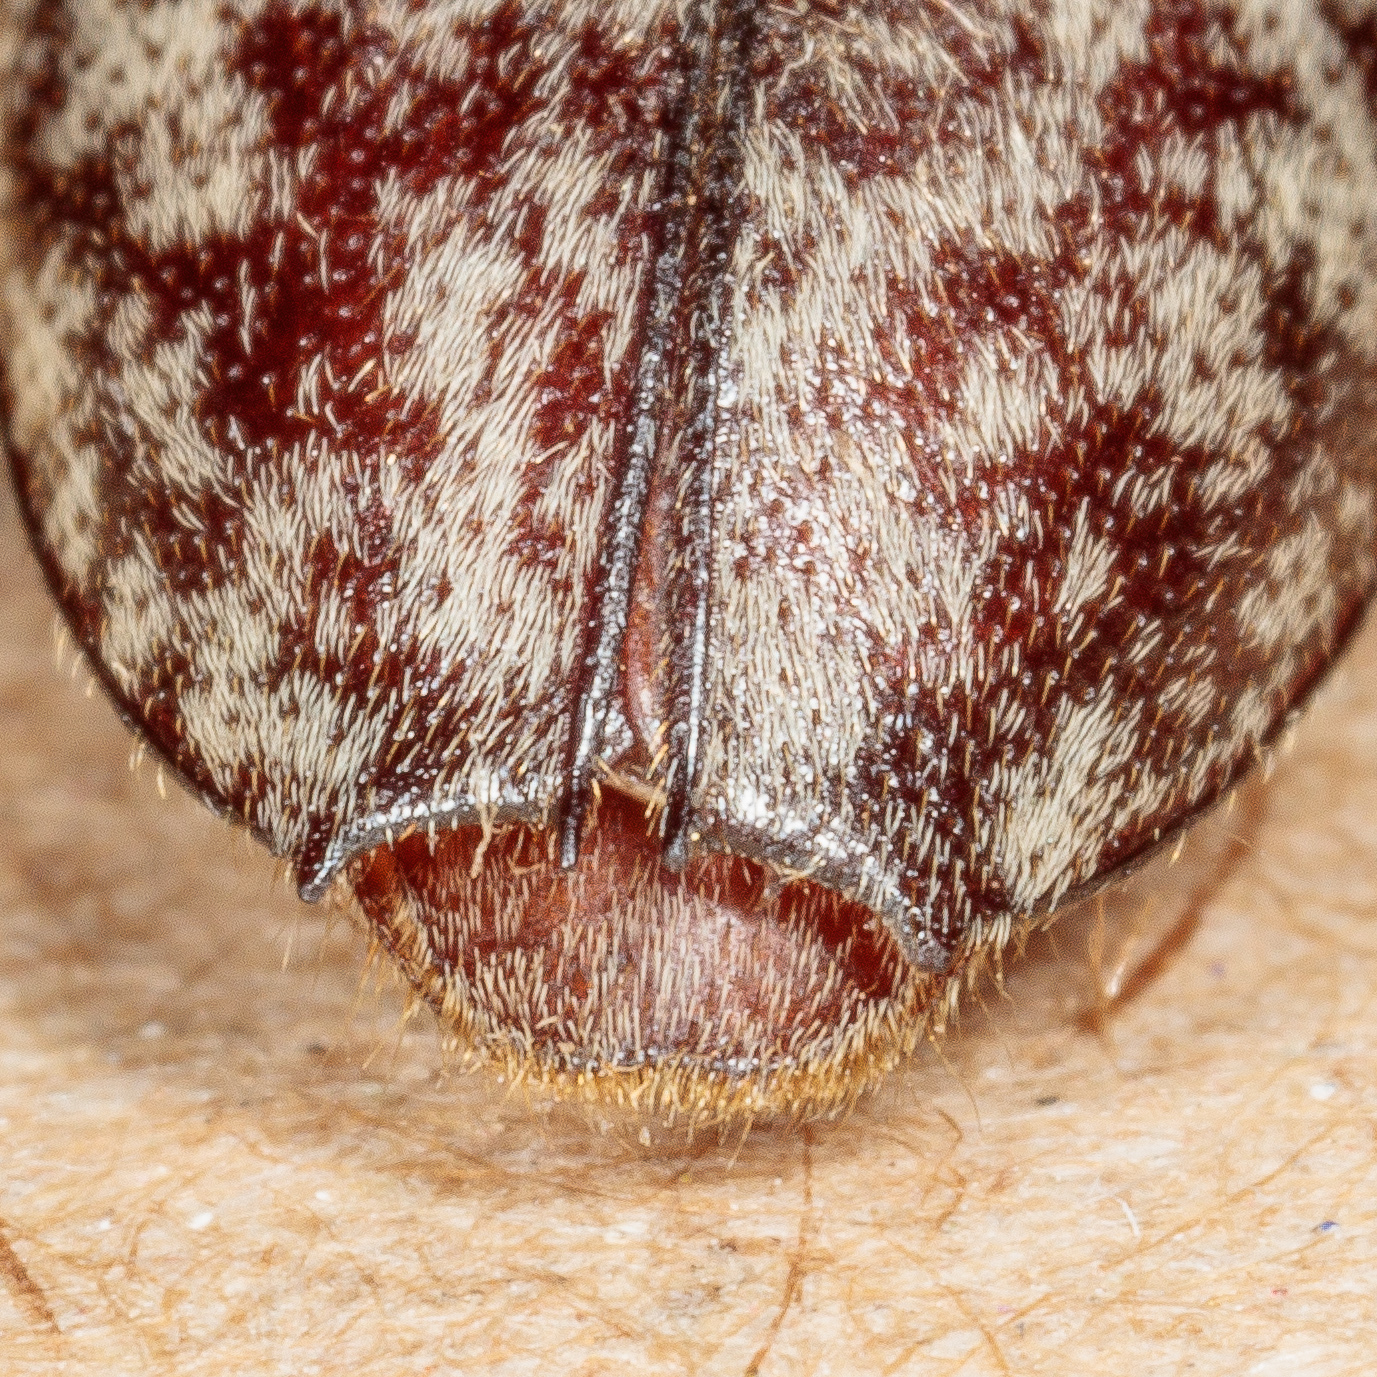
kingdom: Animalia
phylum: Arthropoda
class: Insecta
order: Coleoptera
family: Cerambycidae
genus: Enaphalodes
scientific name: Enaphalodes atomarius
